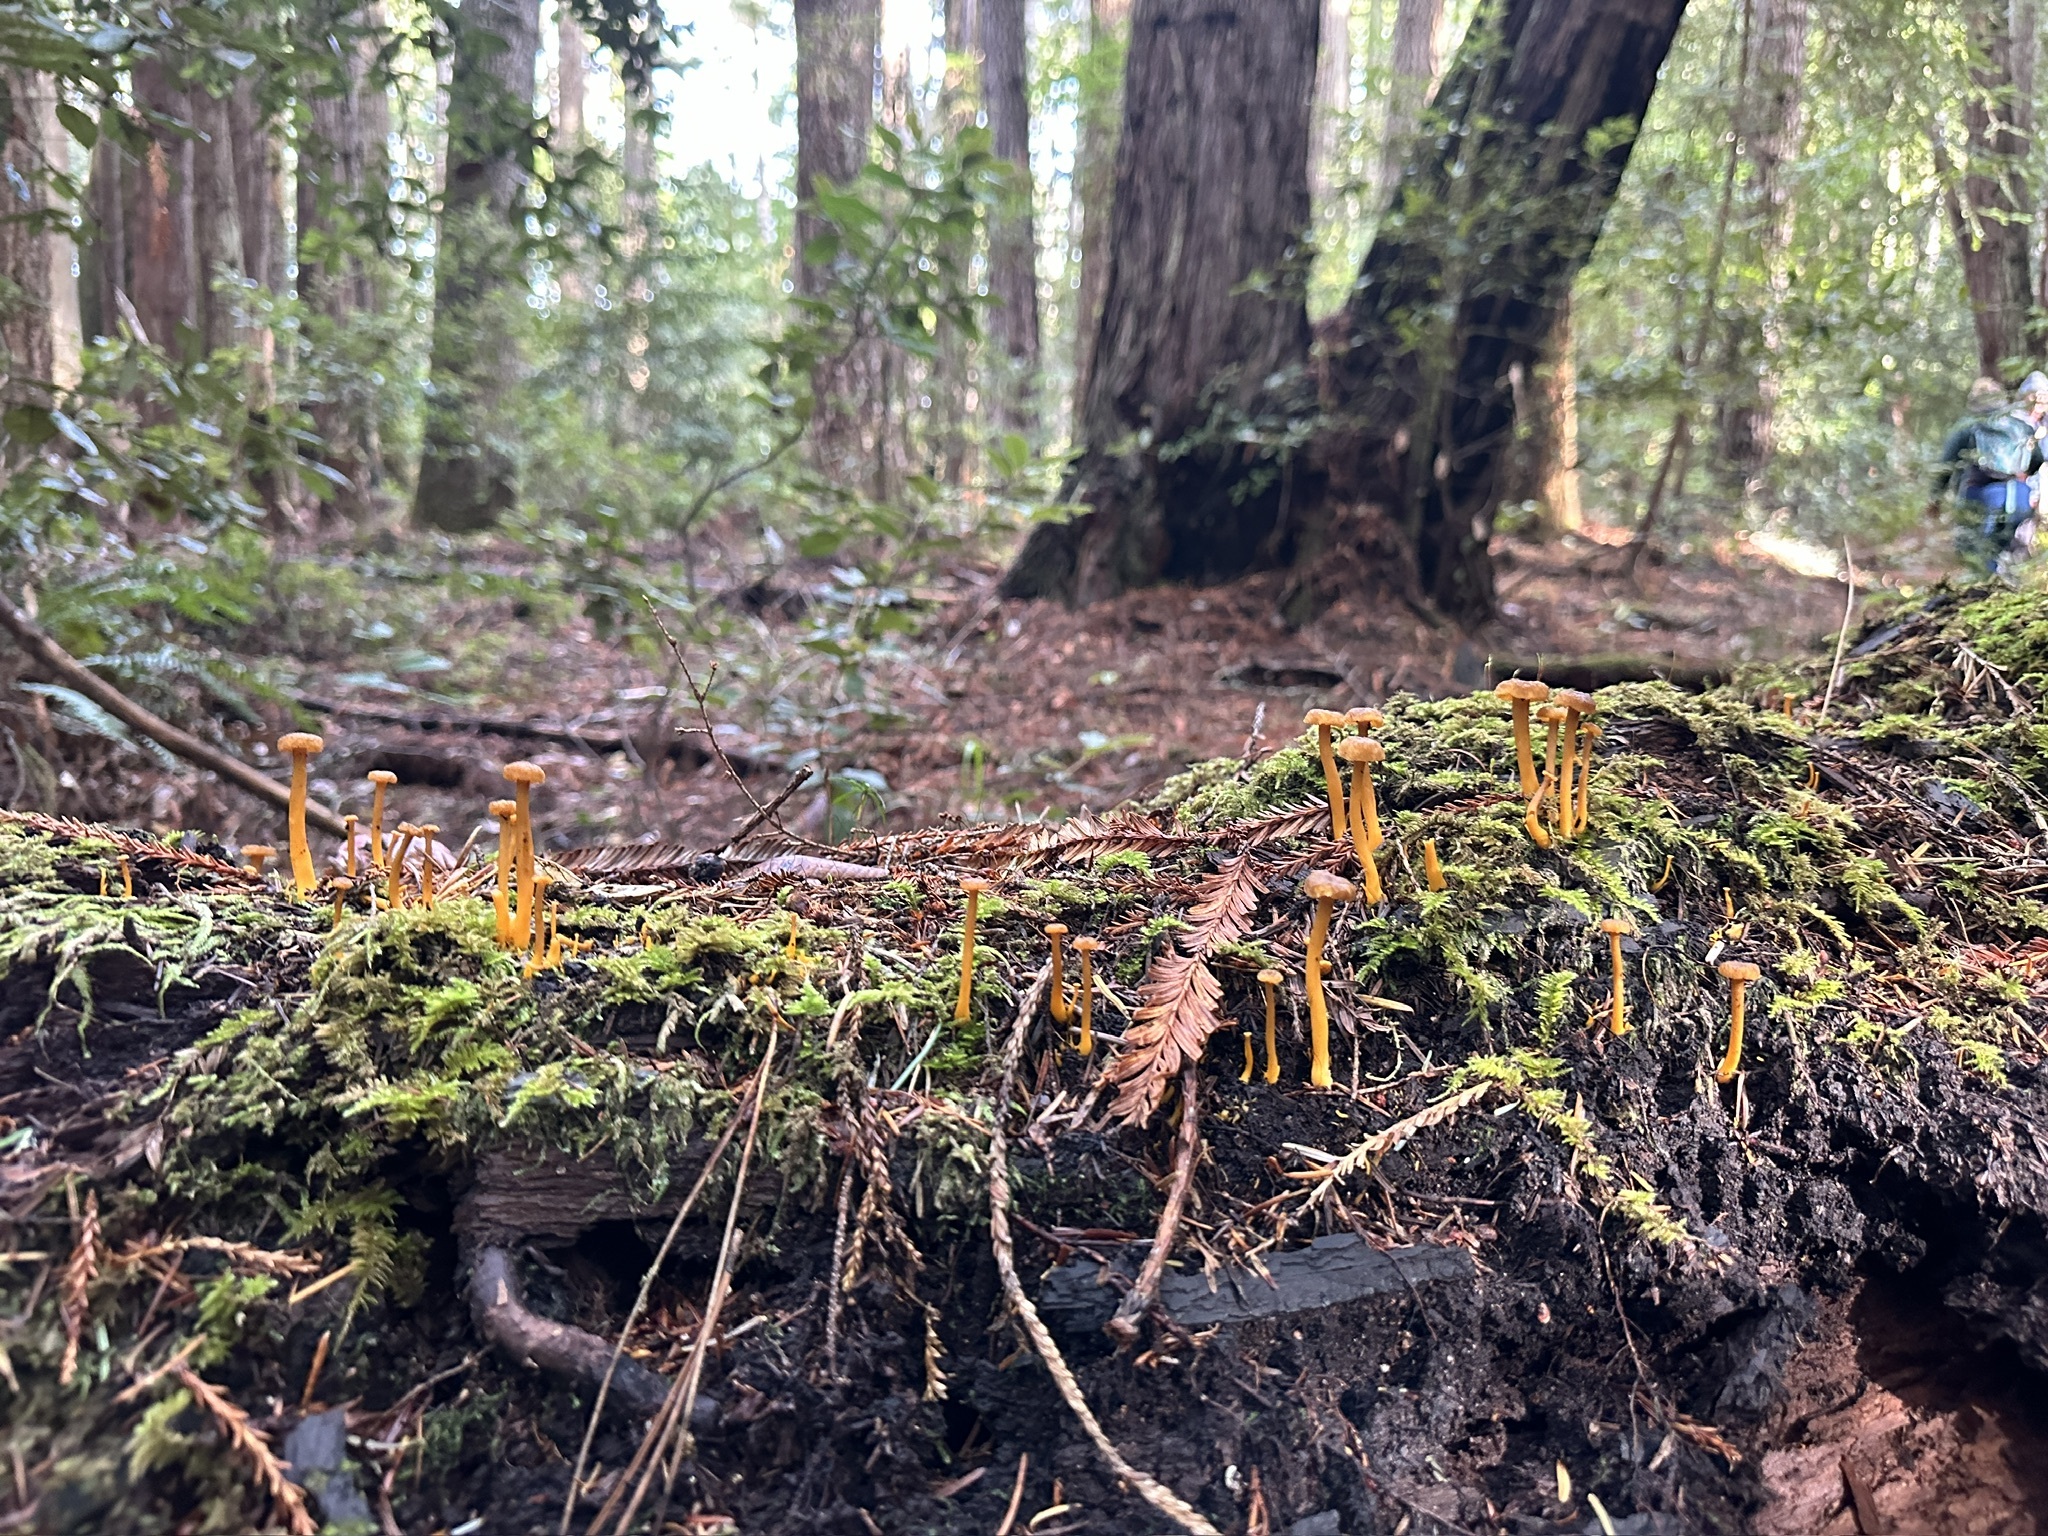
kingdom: Fungi
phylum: Basidiomycota
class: Agaricomycetes
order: Cantharellales
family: Hydnaceae
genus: Craterellus
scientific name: Craterellus tubaeformis
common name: Yellowfoot
